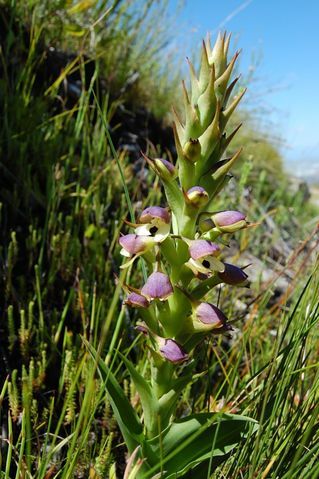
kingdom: Plantae
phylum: Tracheophyta
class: Liliopsida
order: Asparagales
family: Orchidaceae
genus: Disa
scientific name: Disa cornuta
